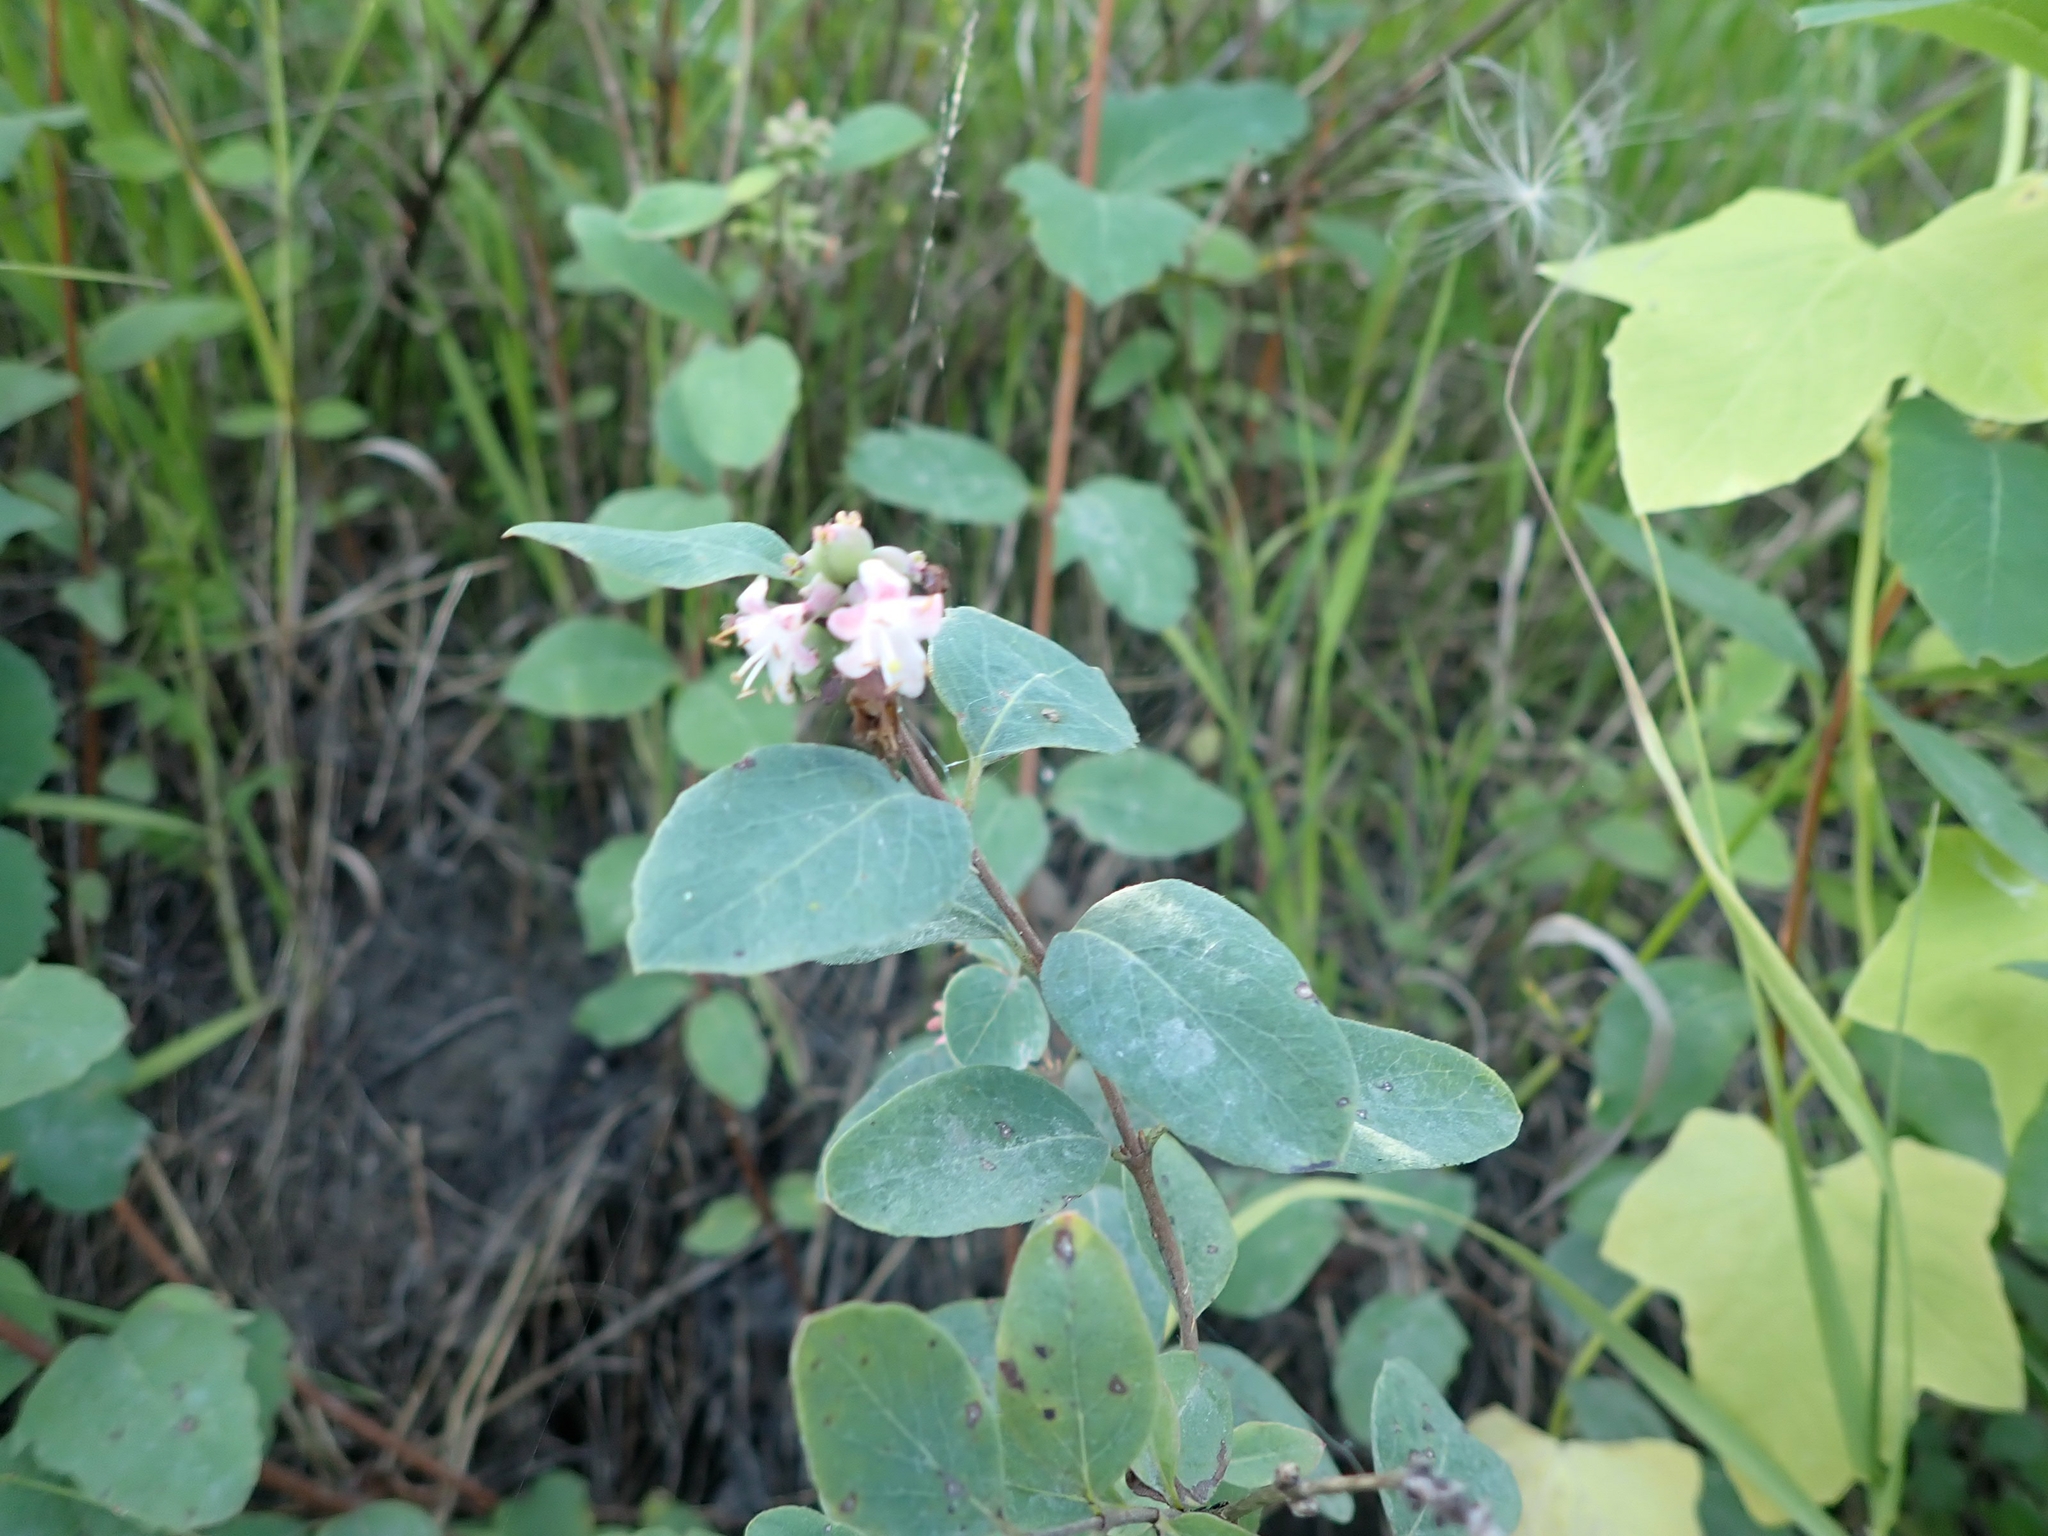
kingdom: Plantae
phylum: Tracheophyta
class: Magnoliopsida
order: Dipsacales
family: Caprifoliaceae
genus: Symphoricarpos
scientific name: Symphoricarpos occidentalis
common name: Wolfberry
